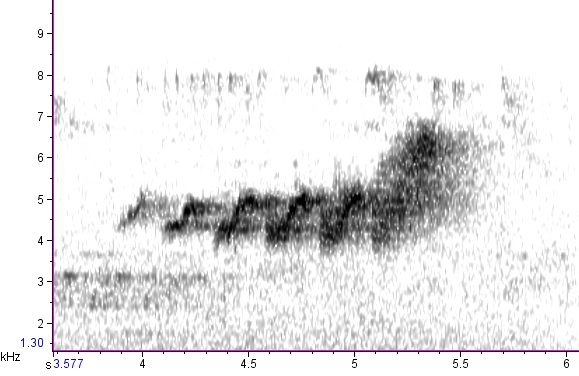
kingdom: Animalia
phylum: Chordata
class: Aves
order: Passeriformes
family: Parulidae
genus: Setophaga
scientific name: Setophaga caerulescens
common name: Black-throated blue warbler
